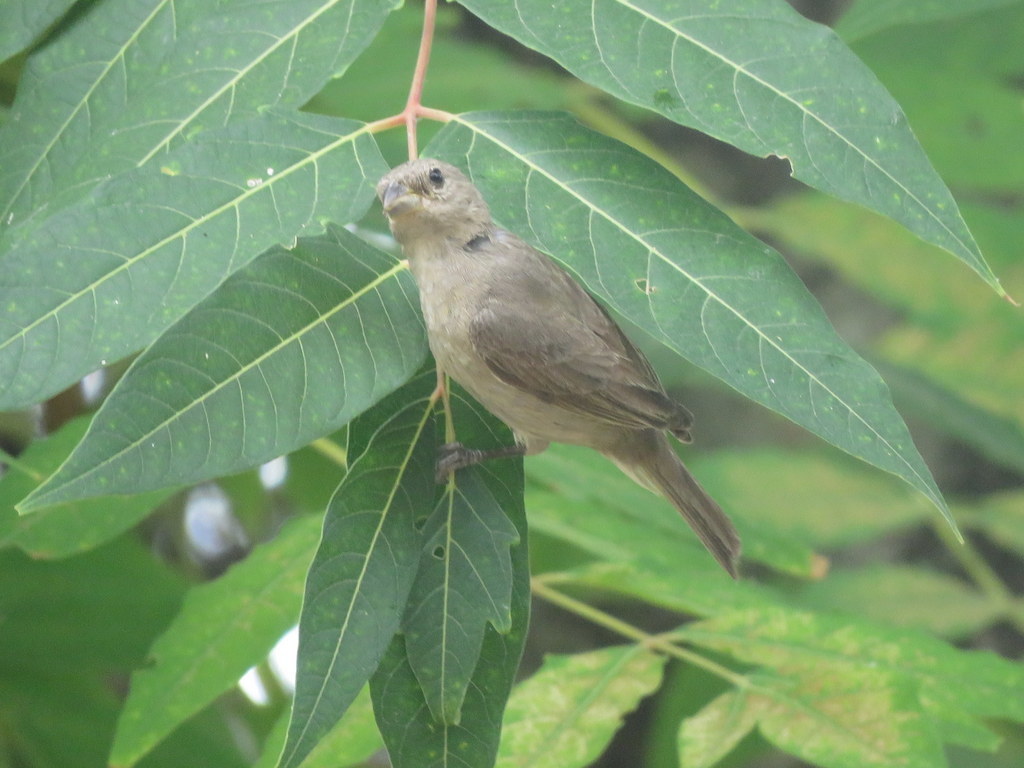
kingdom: Animalia
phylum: Chordata
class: Aves
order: Passeriformes
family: Thraupidae
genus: Sporophila
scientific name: Sporophila caerulescens
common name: Double-collared seedeater
